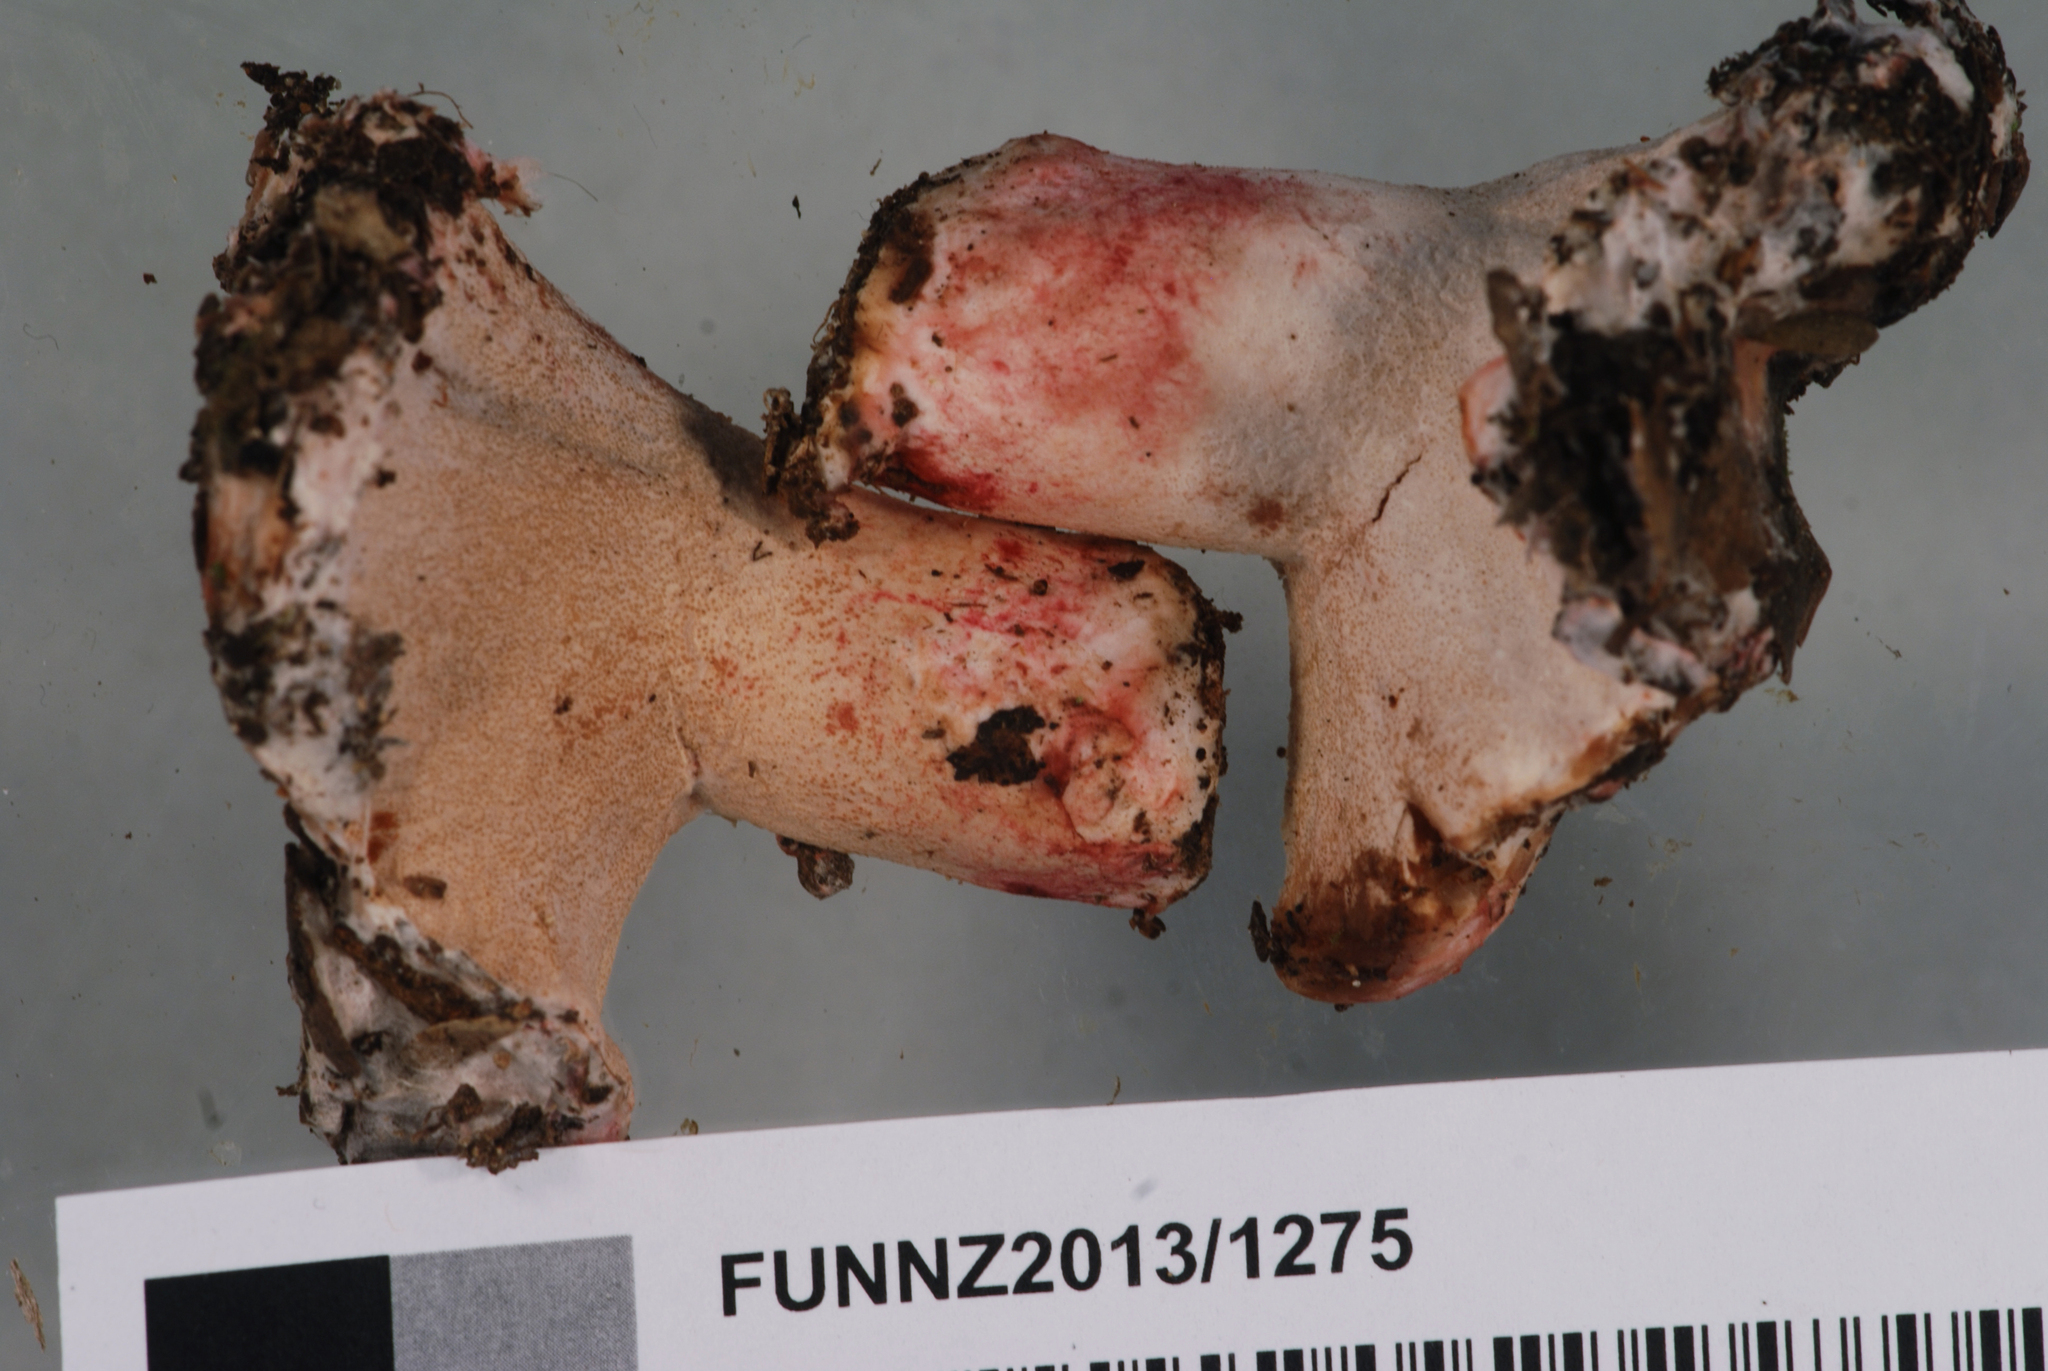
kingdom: Fungi
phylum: Ascomycota
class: Sordariomycetes
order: Hypocreales
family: Hypocreaceae
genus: Hypomyces
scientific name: Hypomyces lateritius
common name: Ochre gillgobbler
